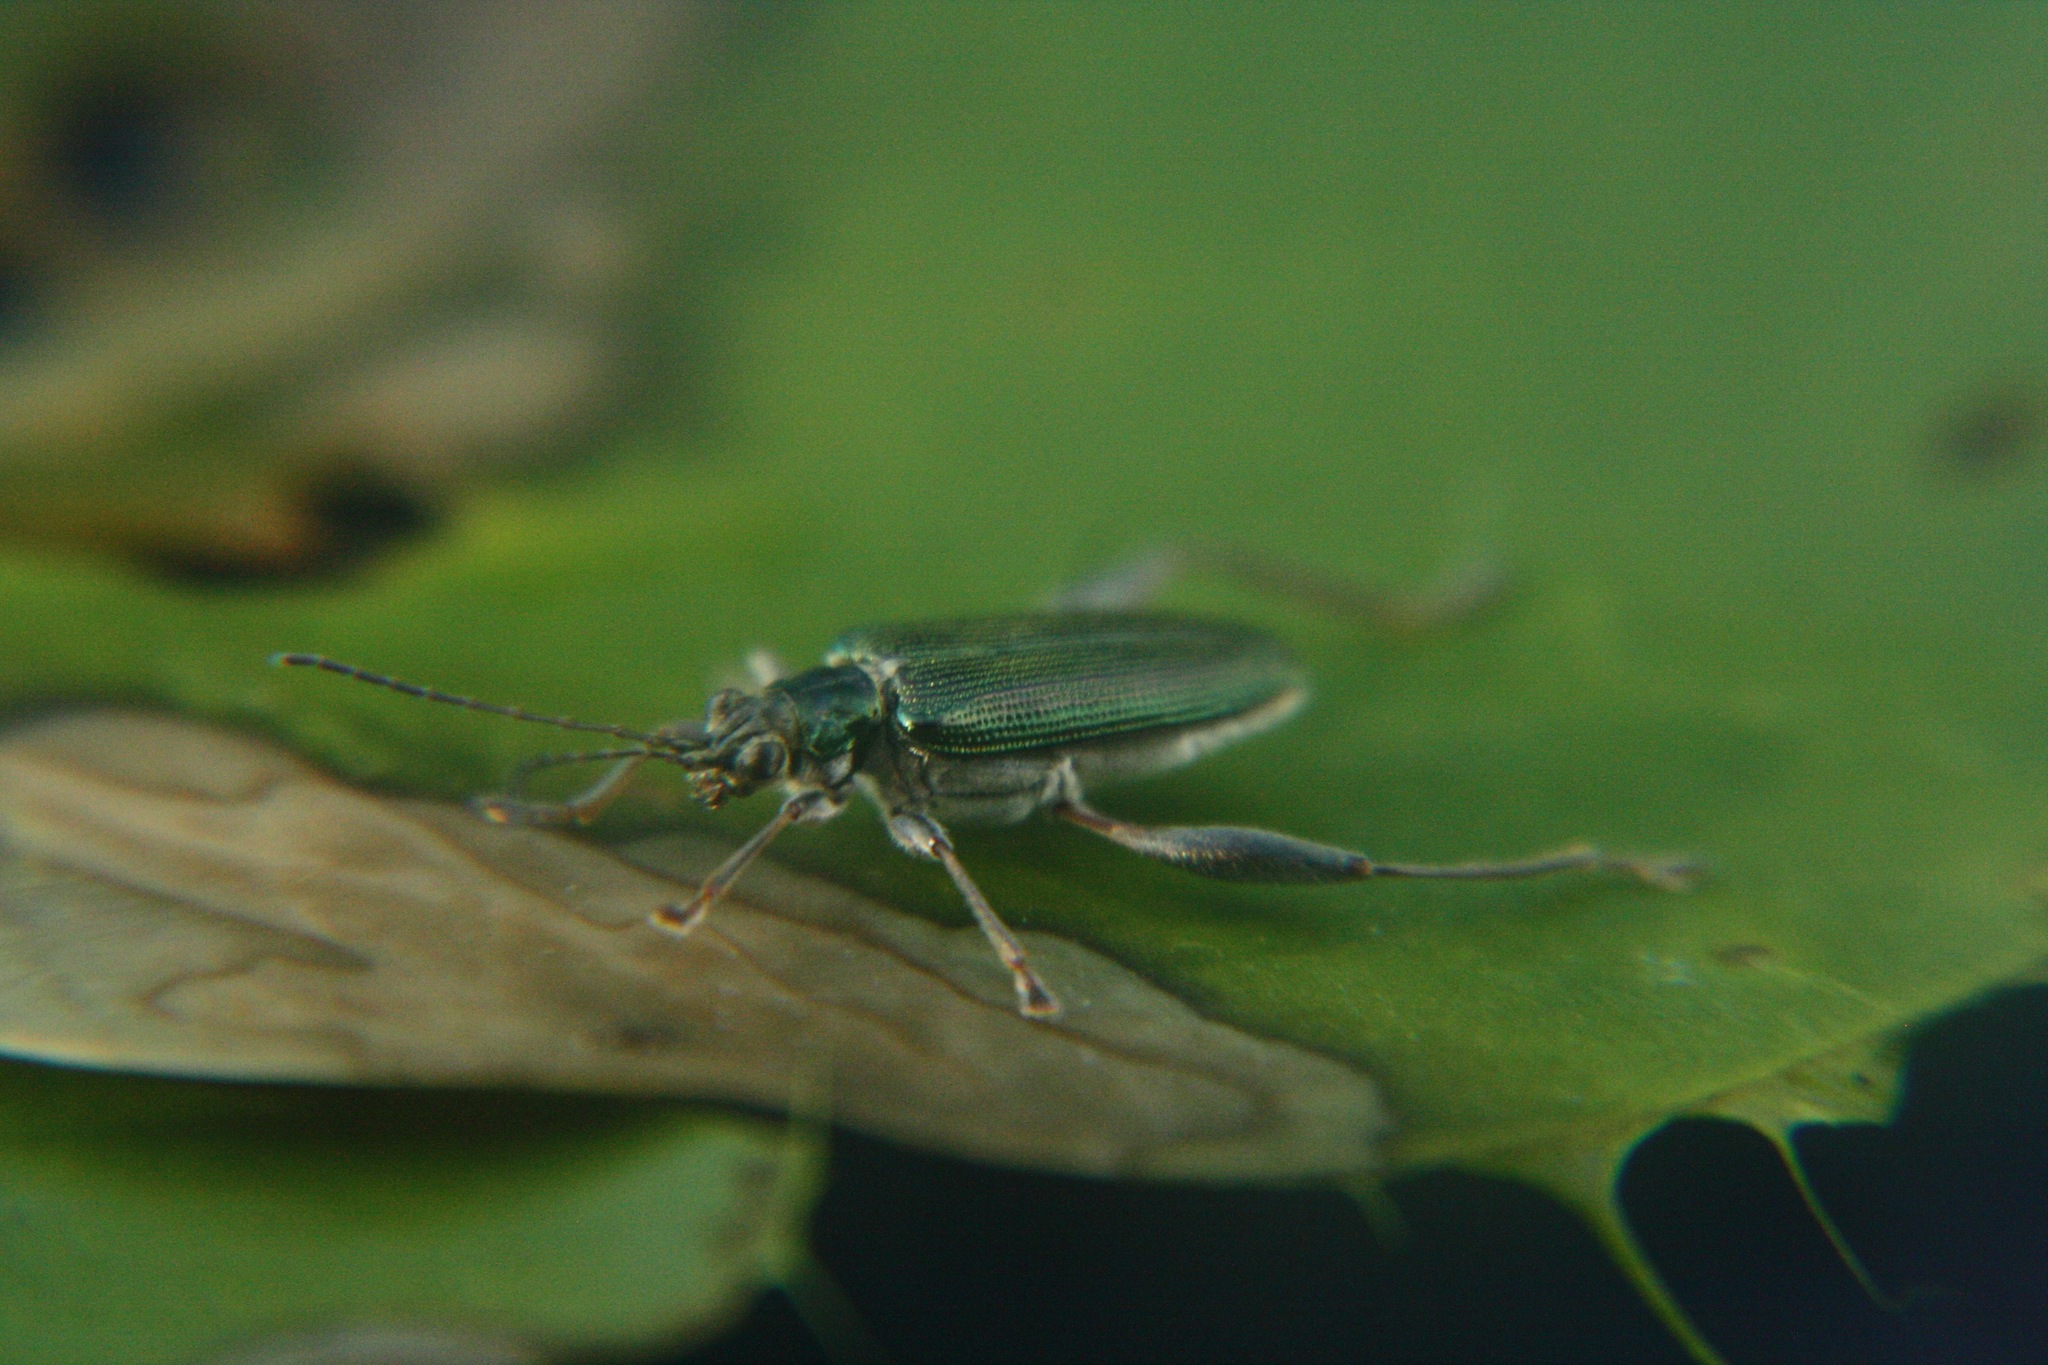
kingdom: Animalia
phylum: Arthropoda
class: Insecta
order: Coleoptera
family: Chrysomelidae
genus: Donacia
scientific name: Donacia crassipes
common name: Water-lily reed beetle
